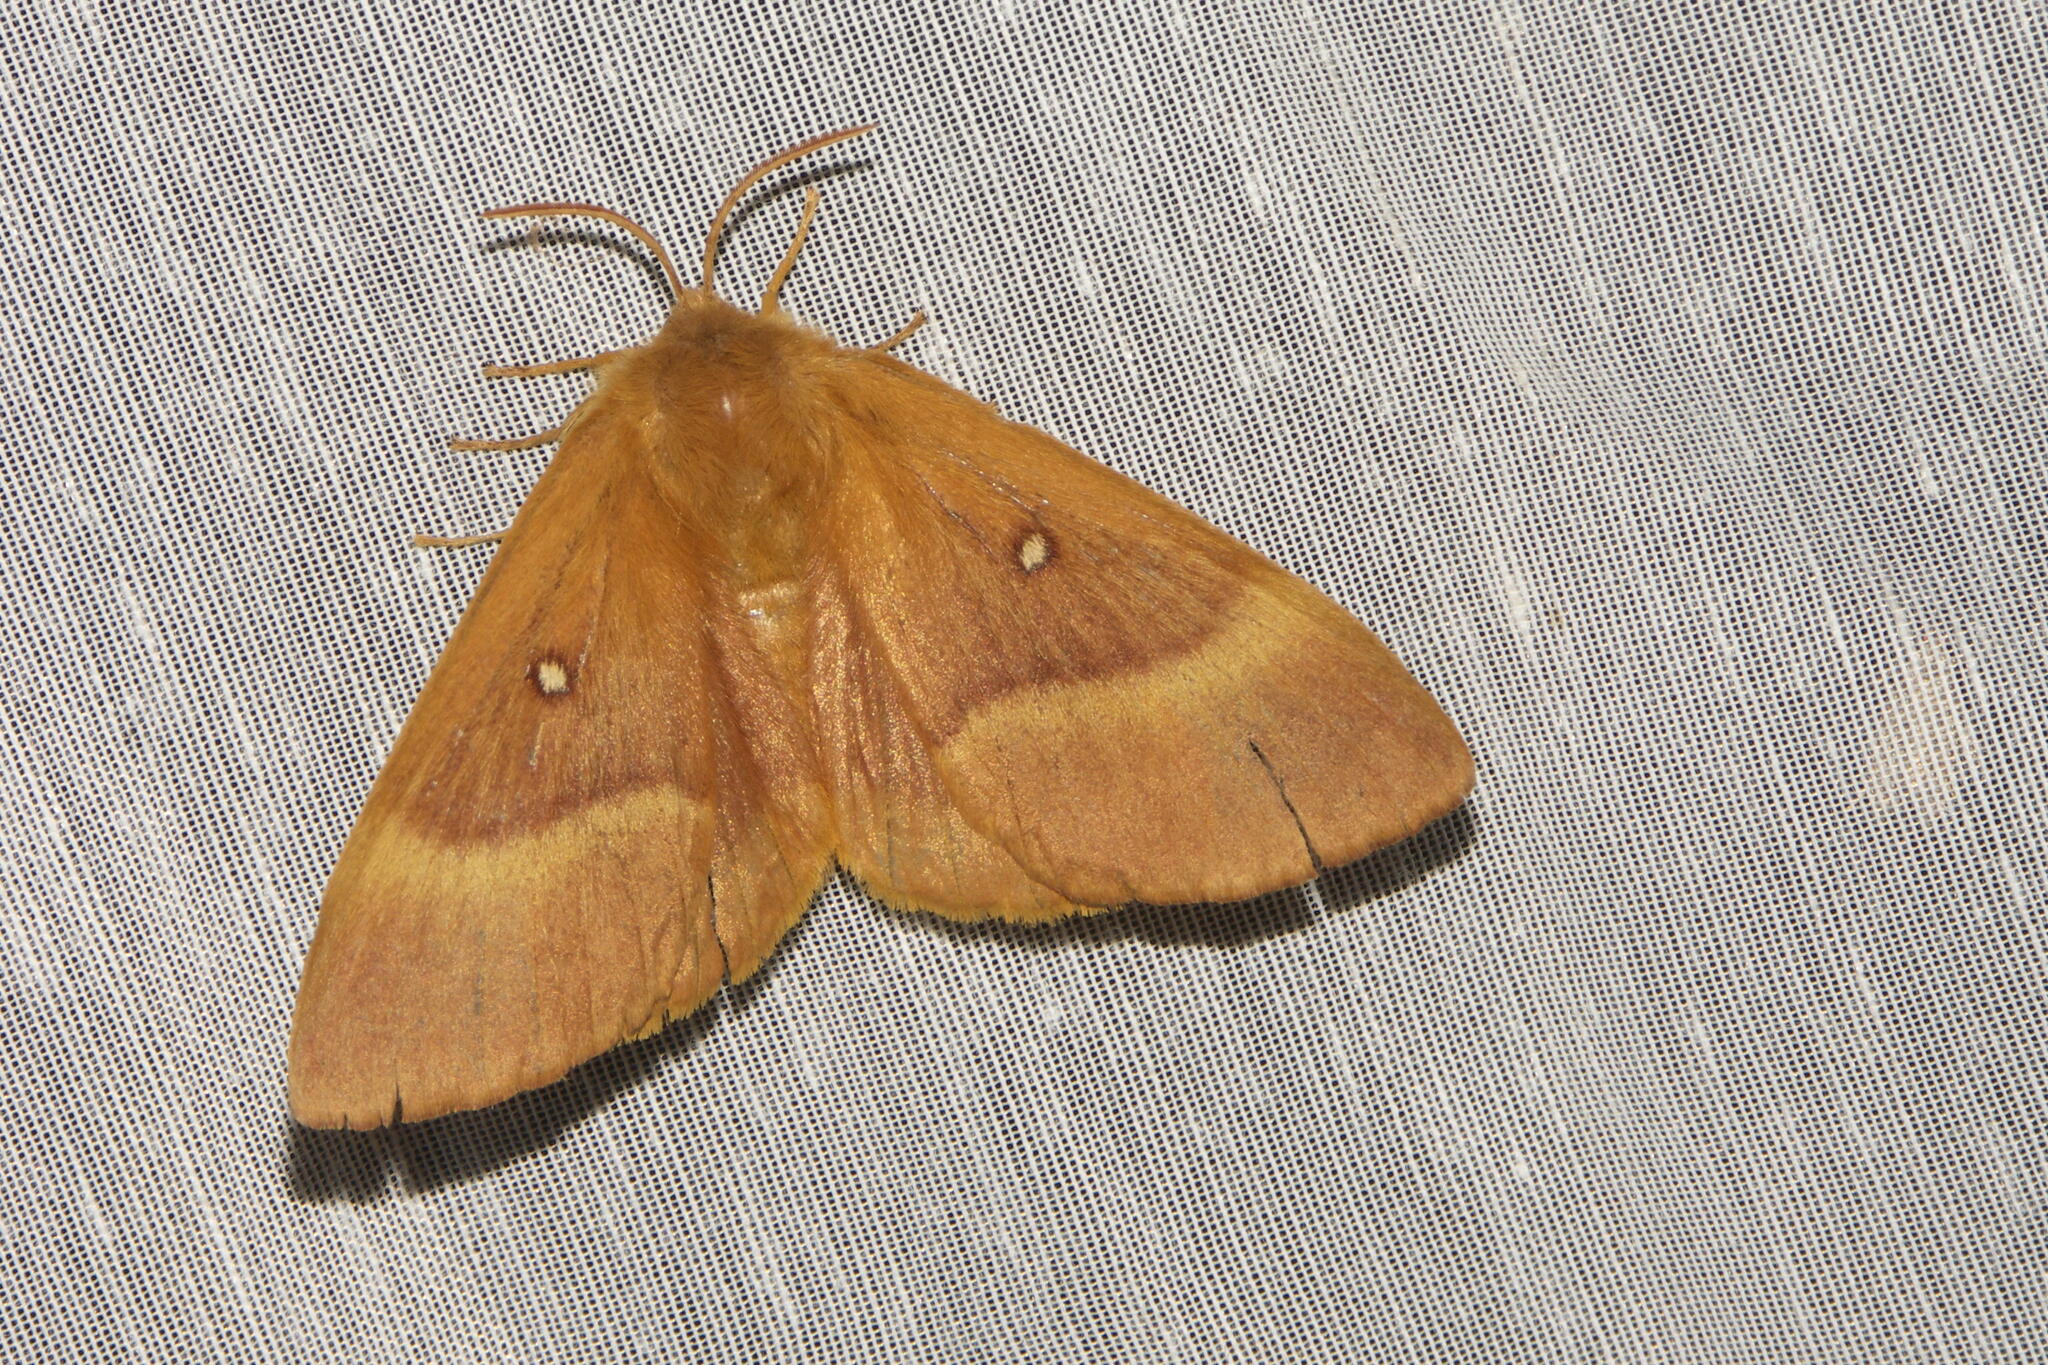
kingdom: Animalia
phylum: Arthropoda
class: Insecta
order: Lepidoptera
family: Lasiocampidae
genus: Lasiocampa
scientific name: Lasiocampa quercus
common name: Oak eggar
